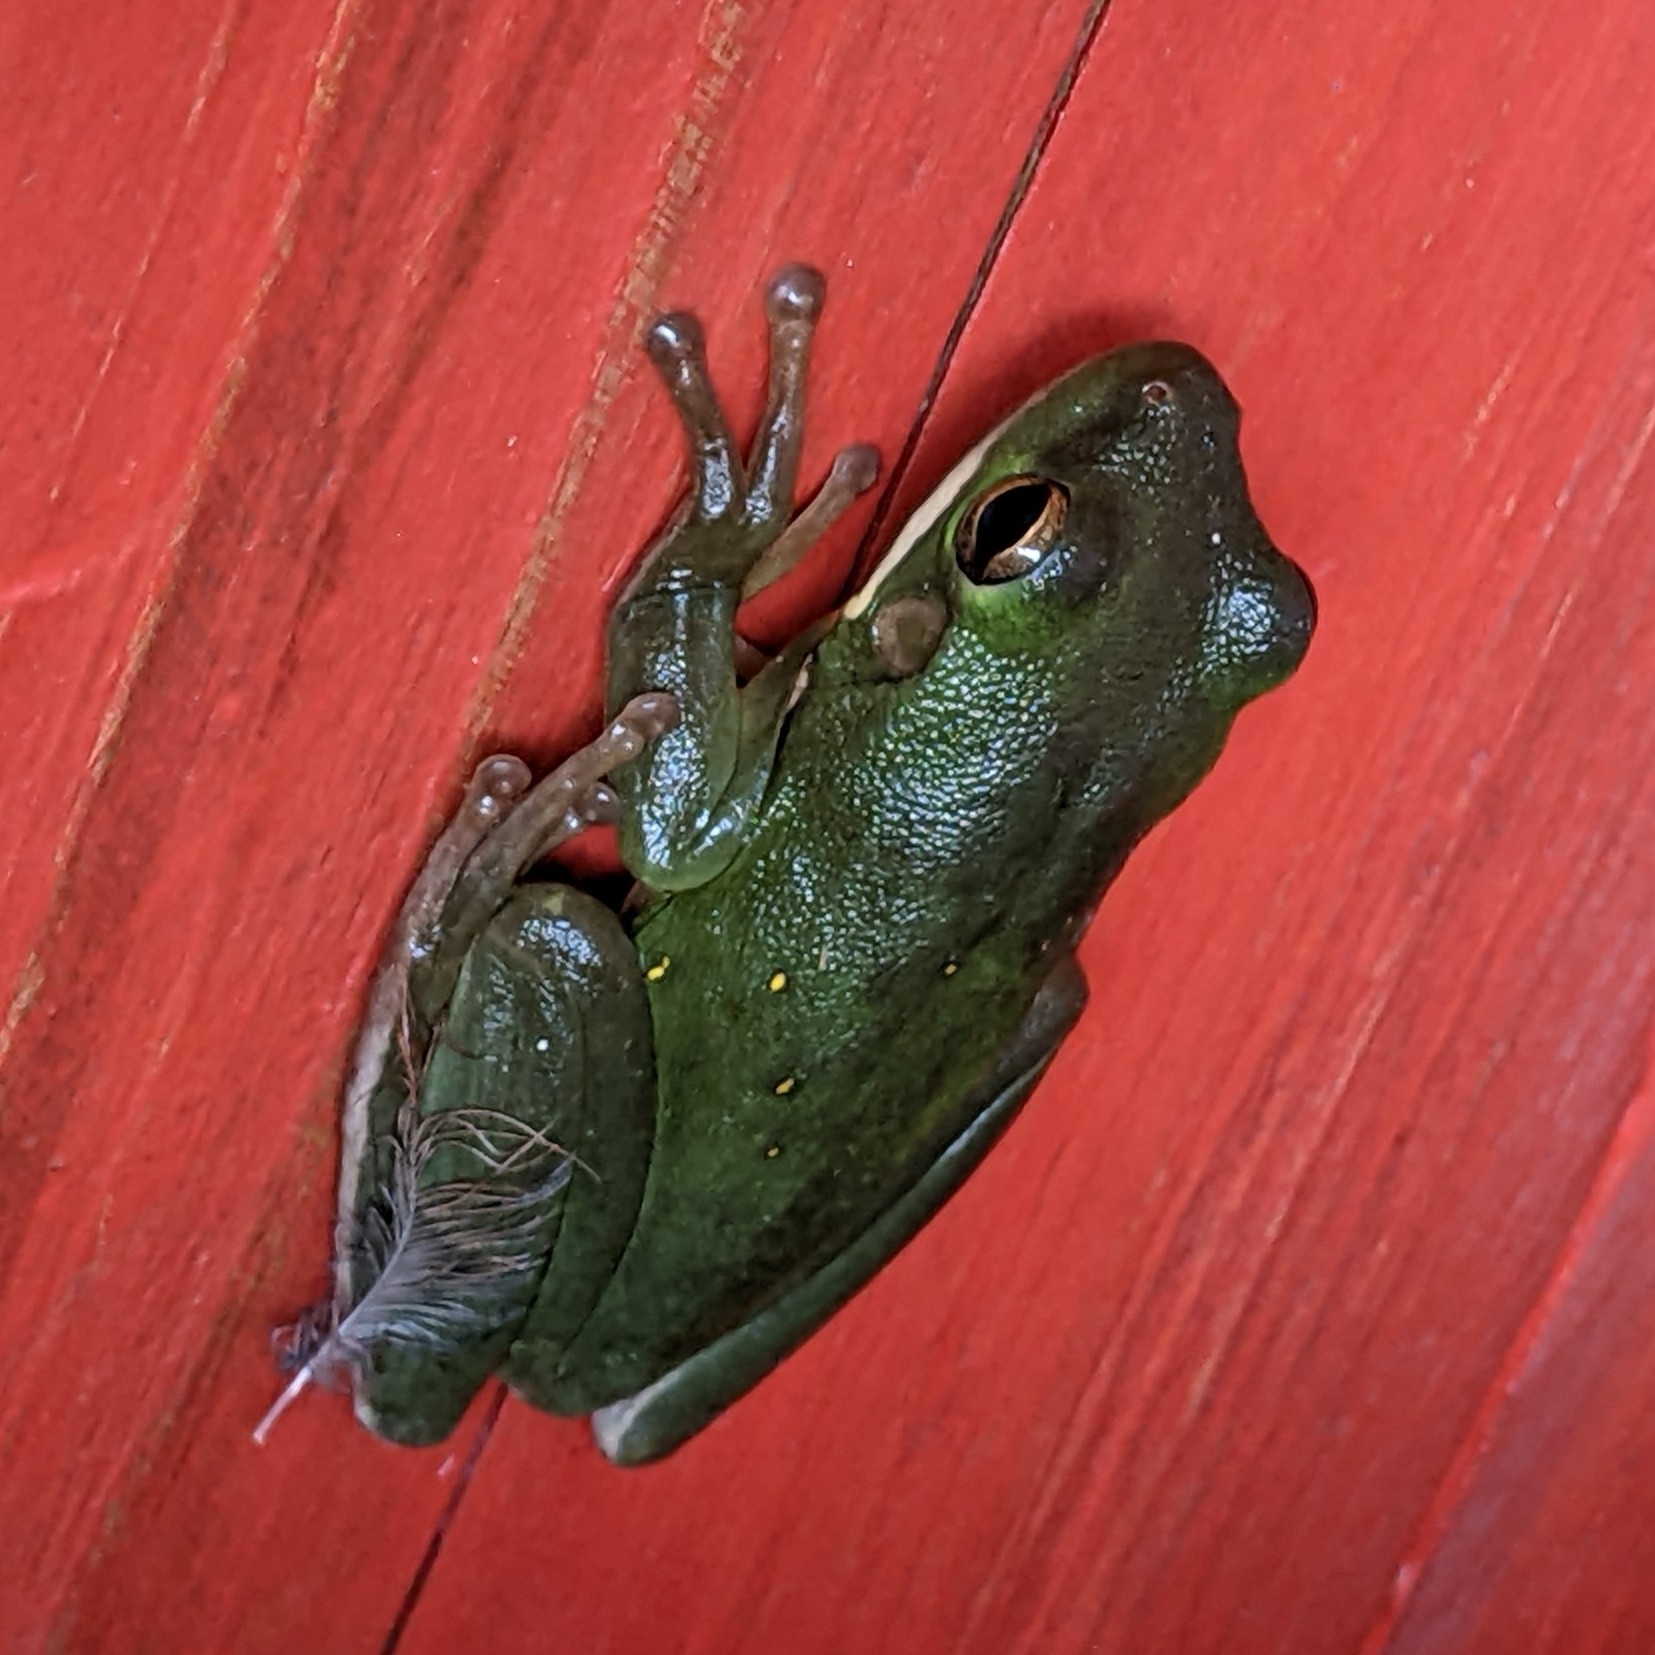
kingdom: Animalia
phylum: Chordata
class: Amphibia
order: Anura
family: Hylidae
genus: Dryophytes
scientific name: Dryophytes cinereus
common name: Green treefrog
